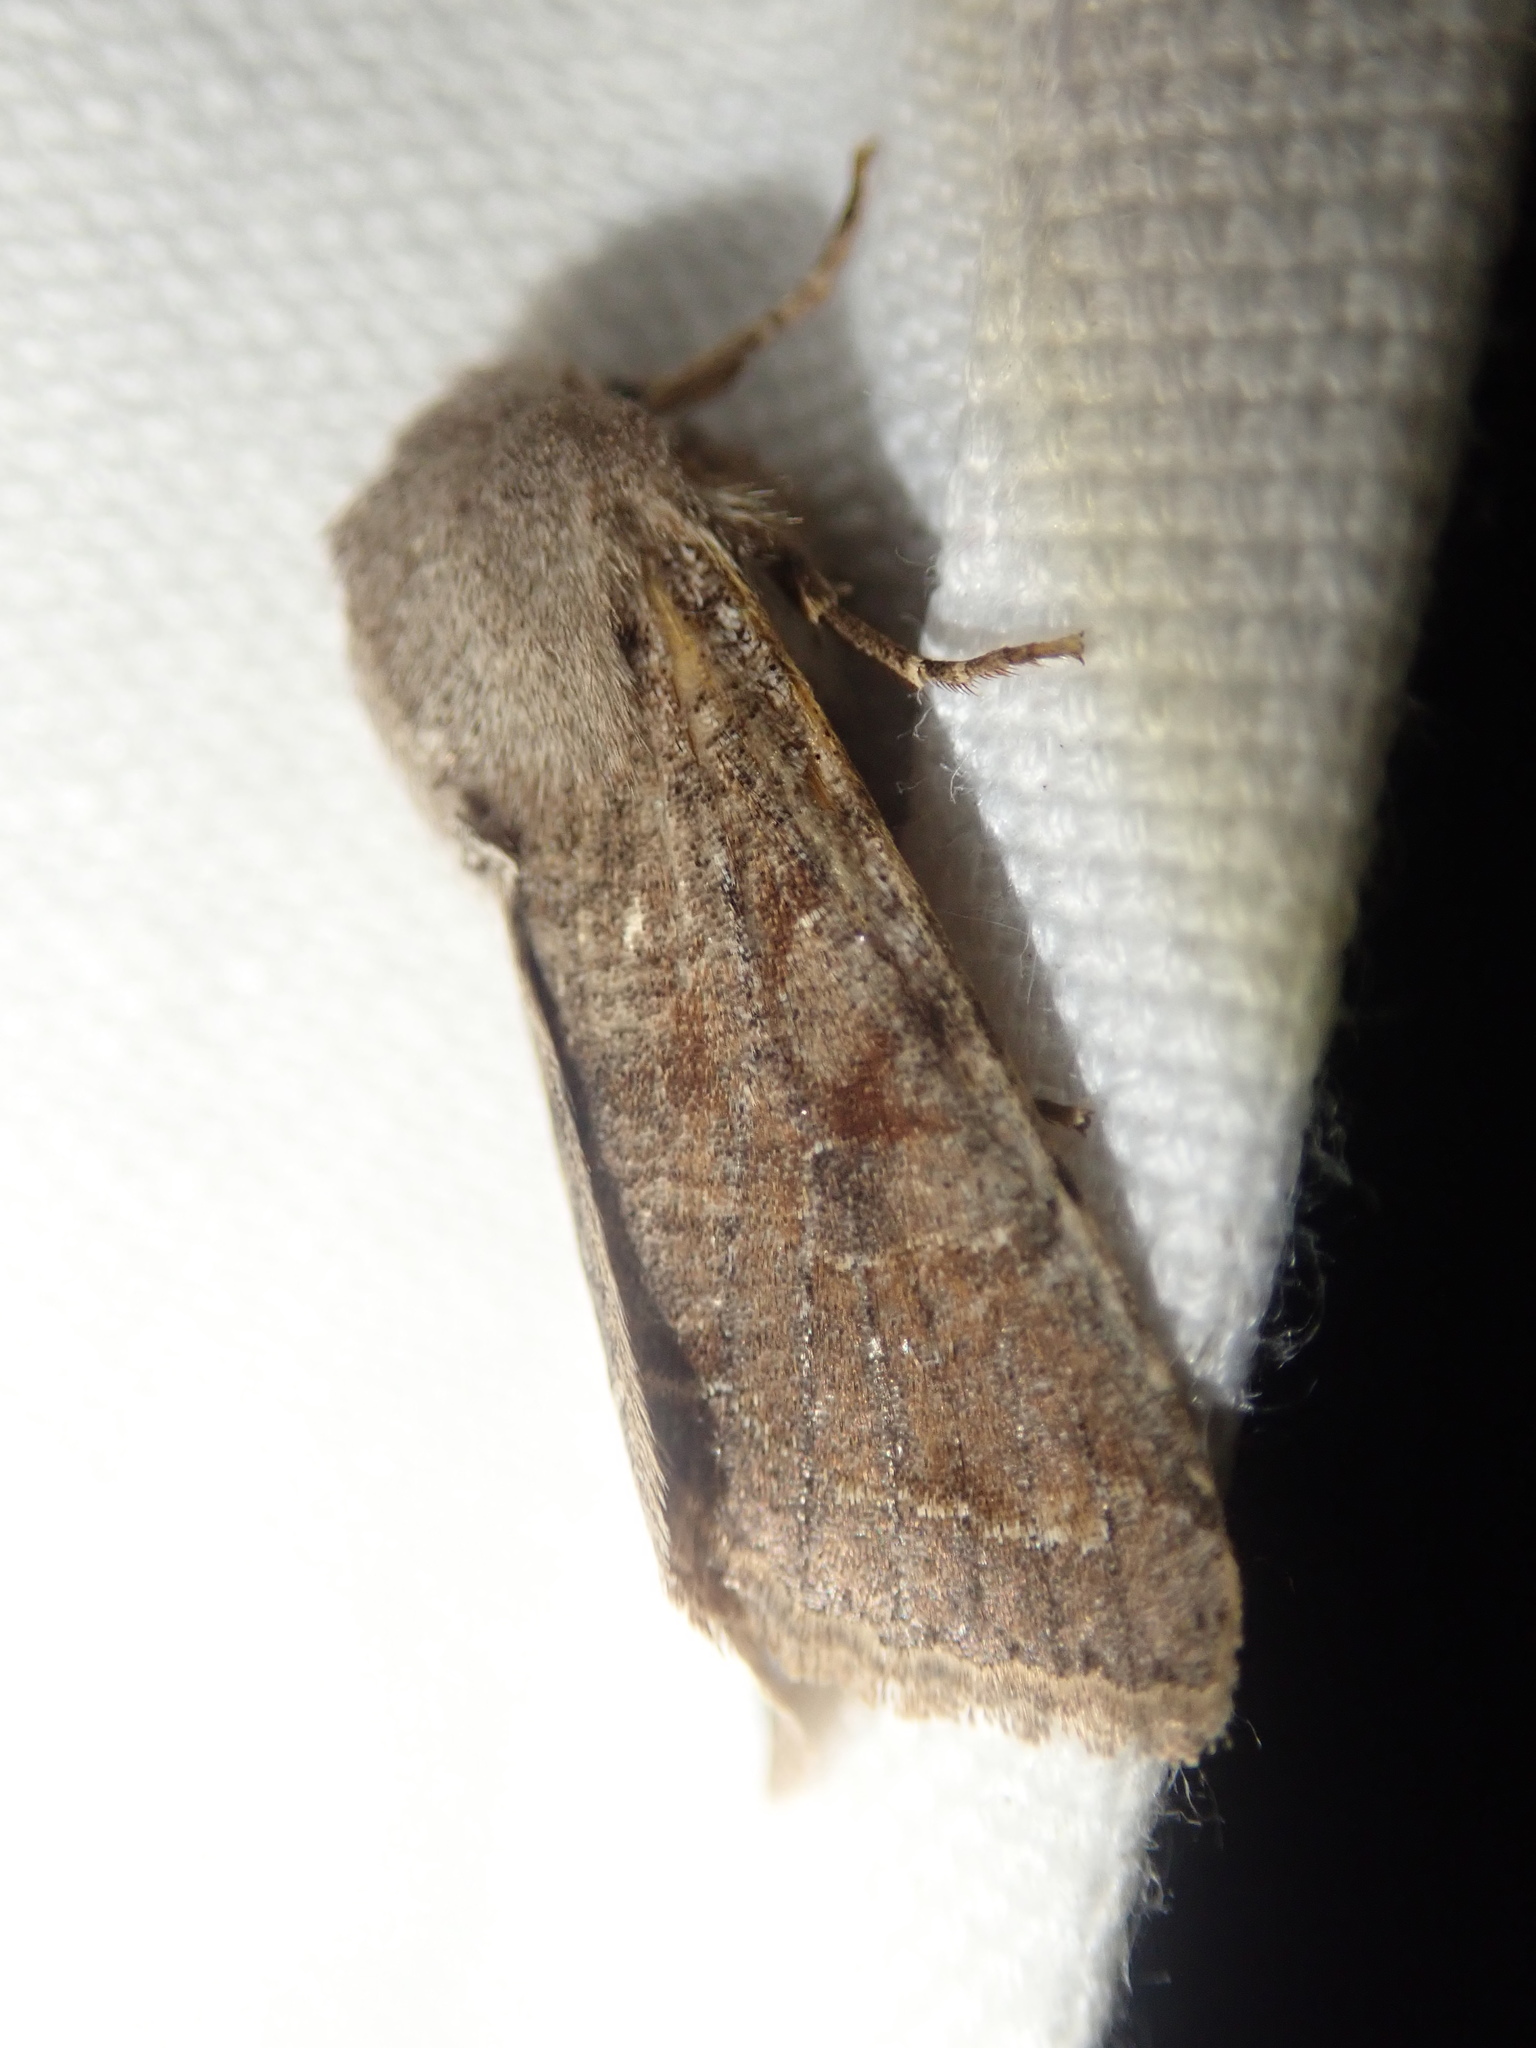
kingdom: Animalia
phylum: Arthropoda
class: Insecta
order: Lepidoptera
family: Noctuidae
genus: Orthosia
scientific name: Orthosia incerta
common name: Clouded drab
